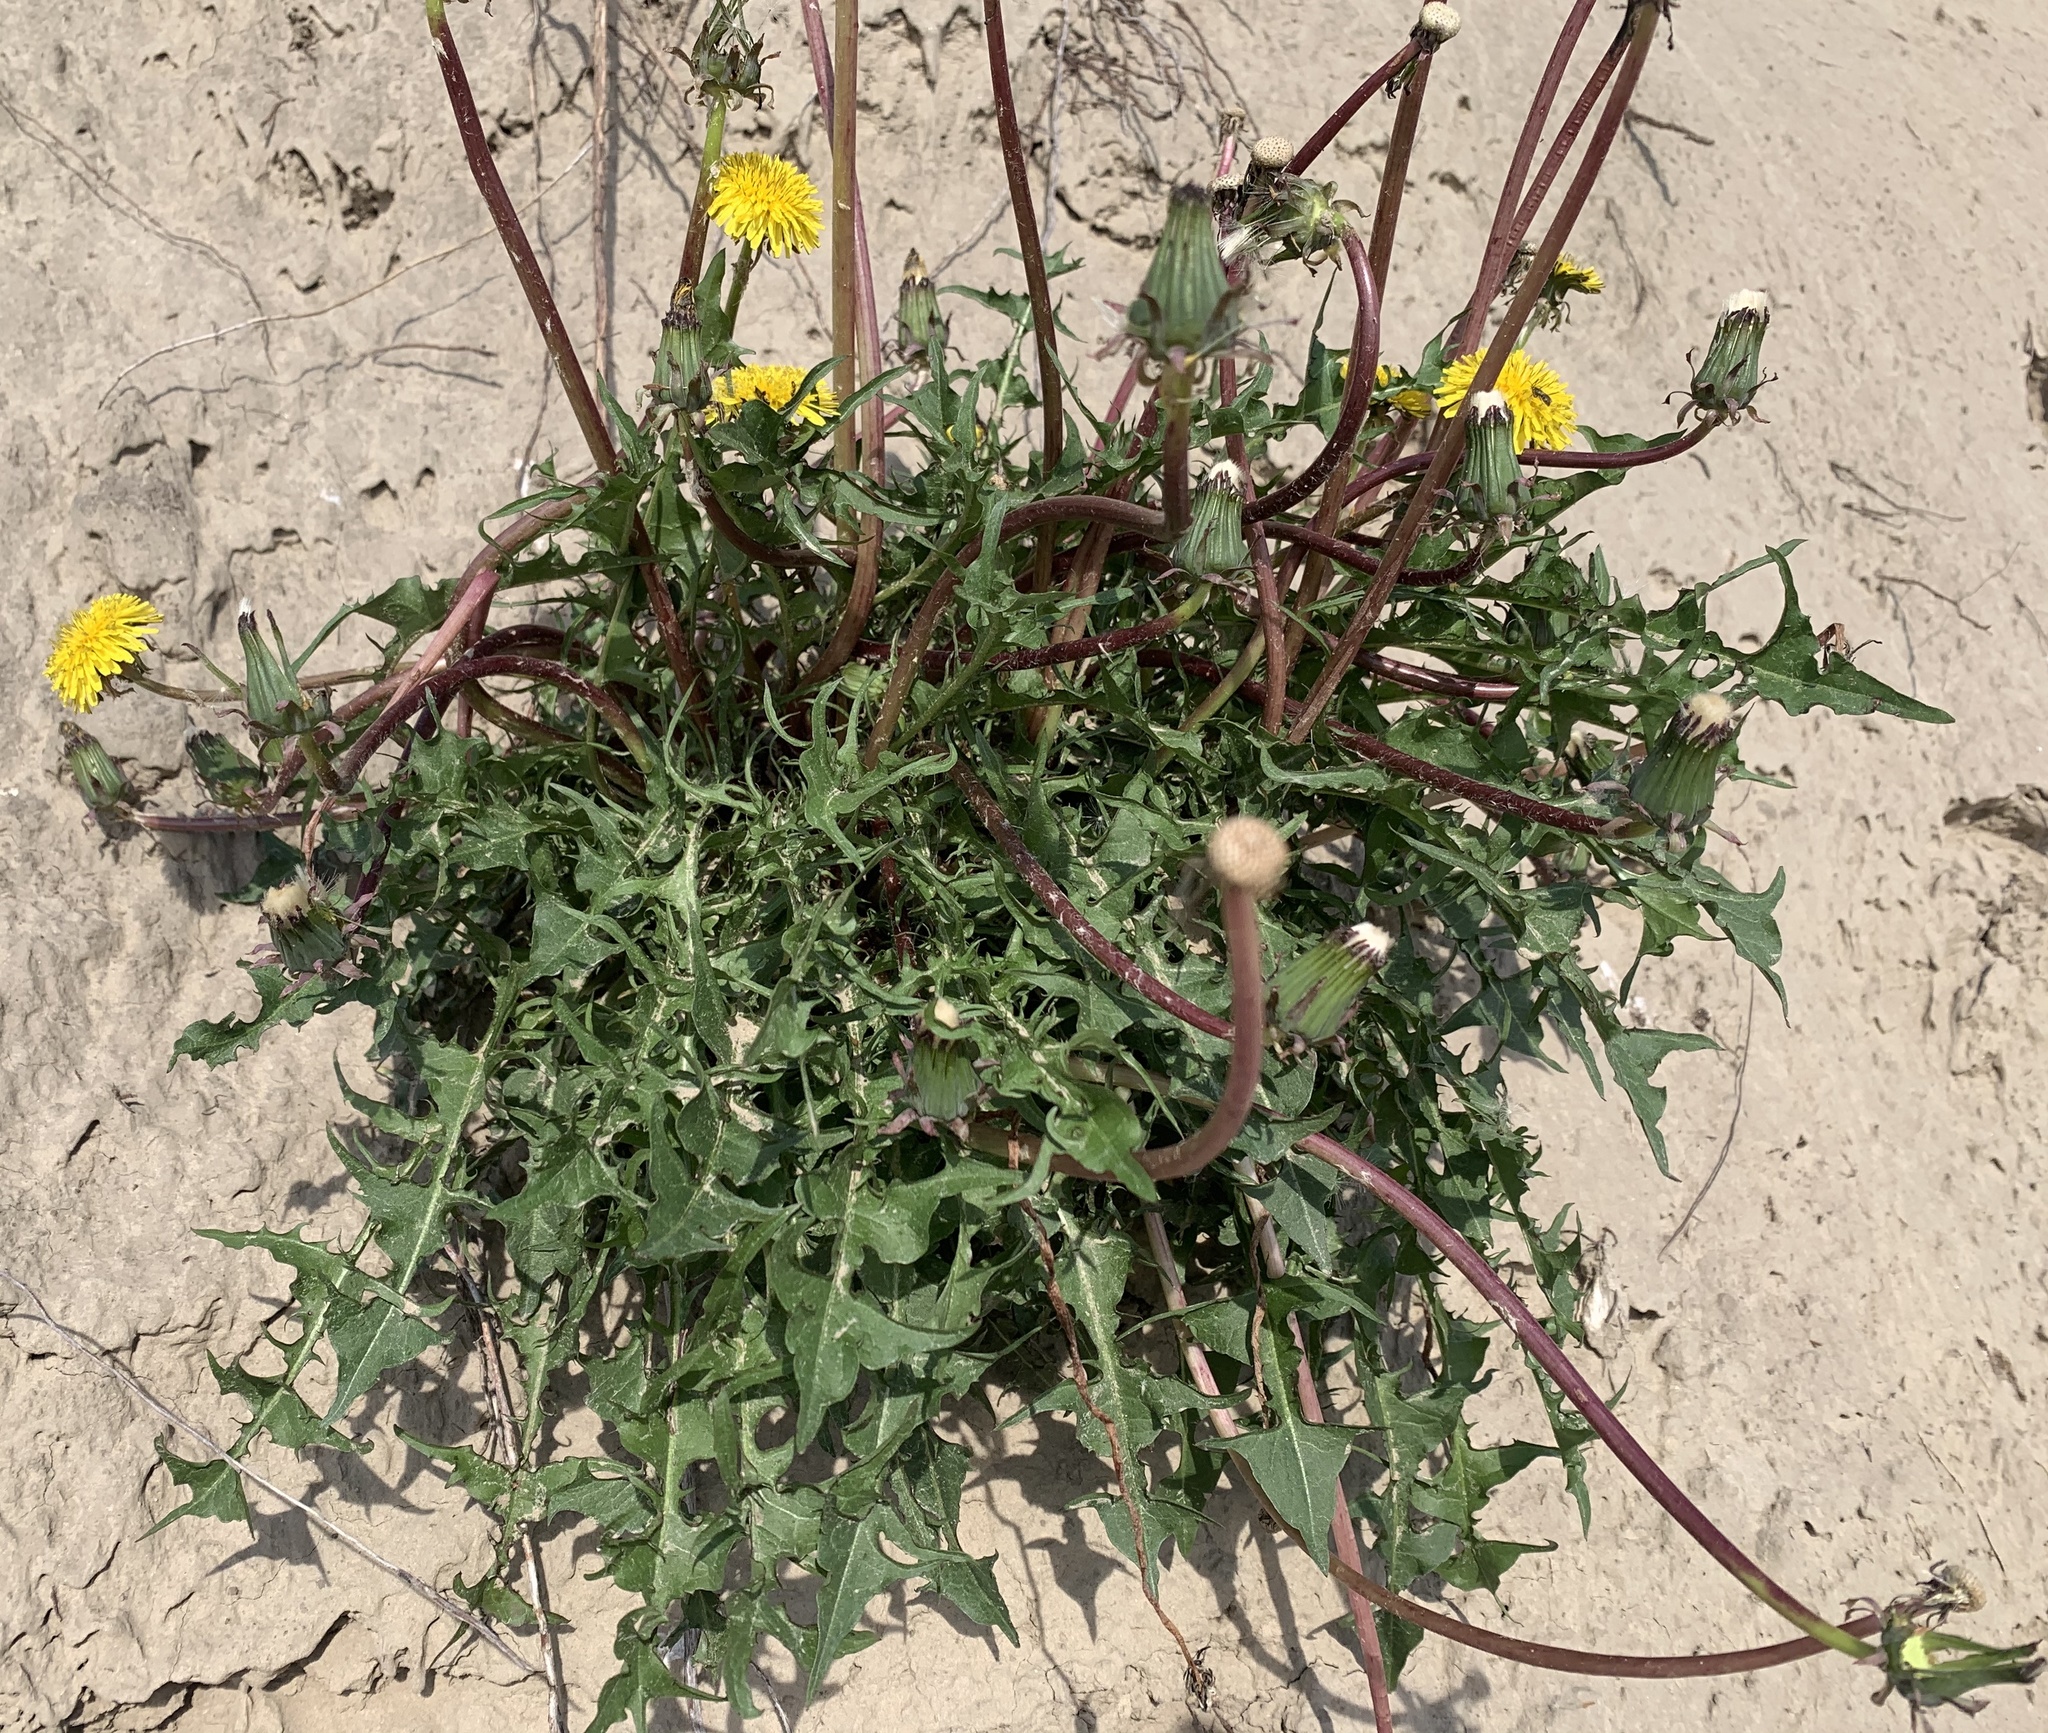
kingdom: Plantae
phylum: Tracheophyta
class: Magnoliopsida
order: Asterales
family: Asteraceae
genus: Taraxacum
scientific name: Taraxacum
